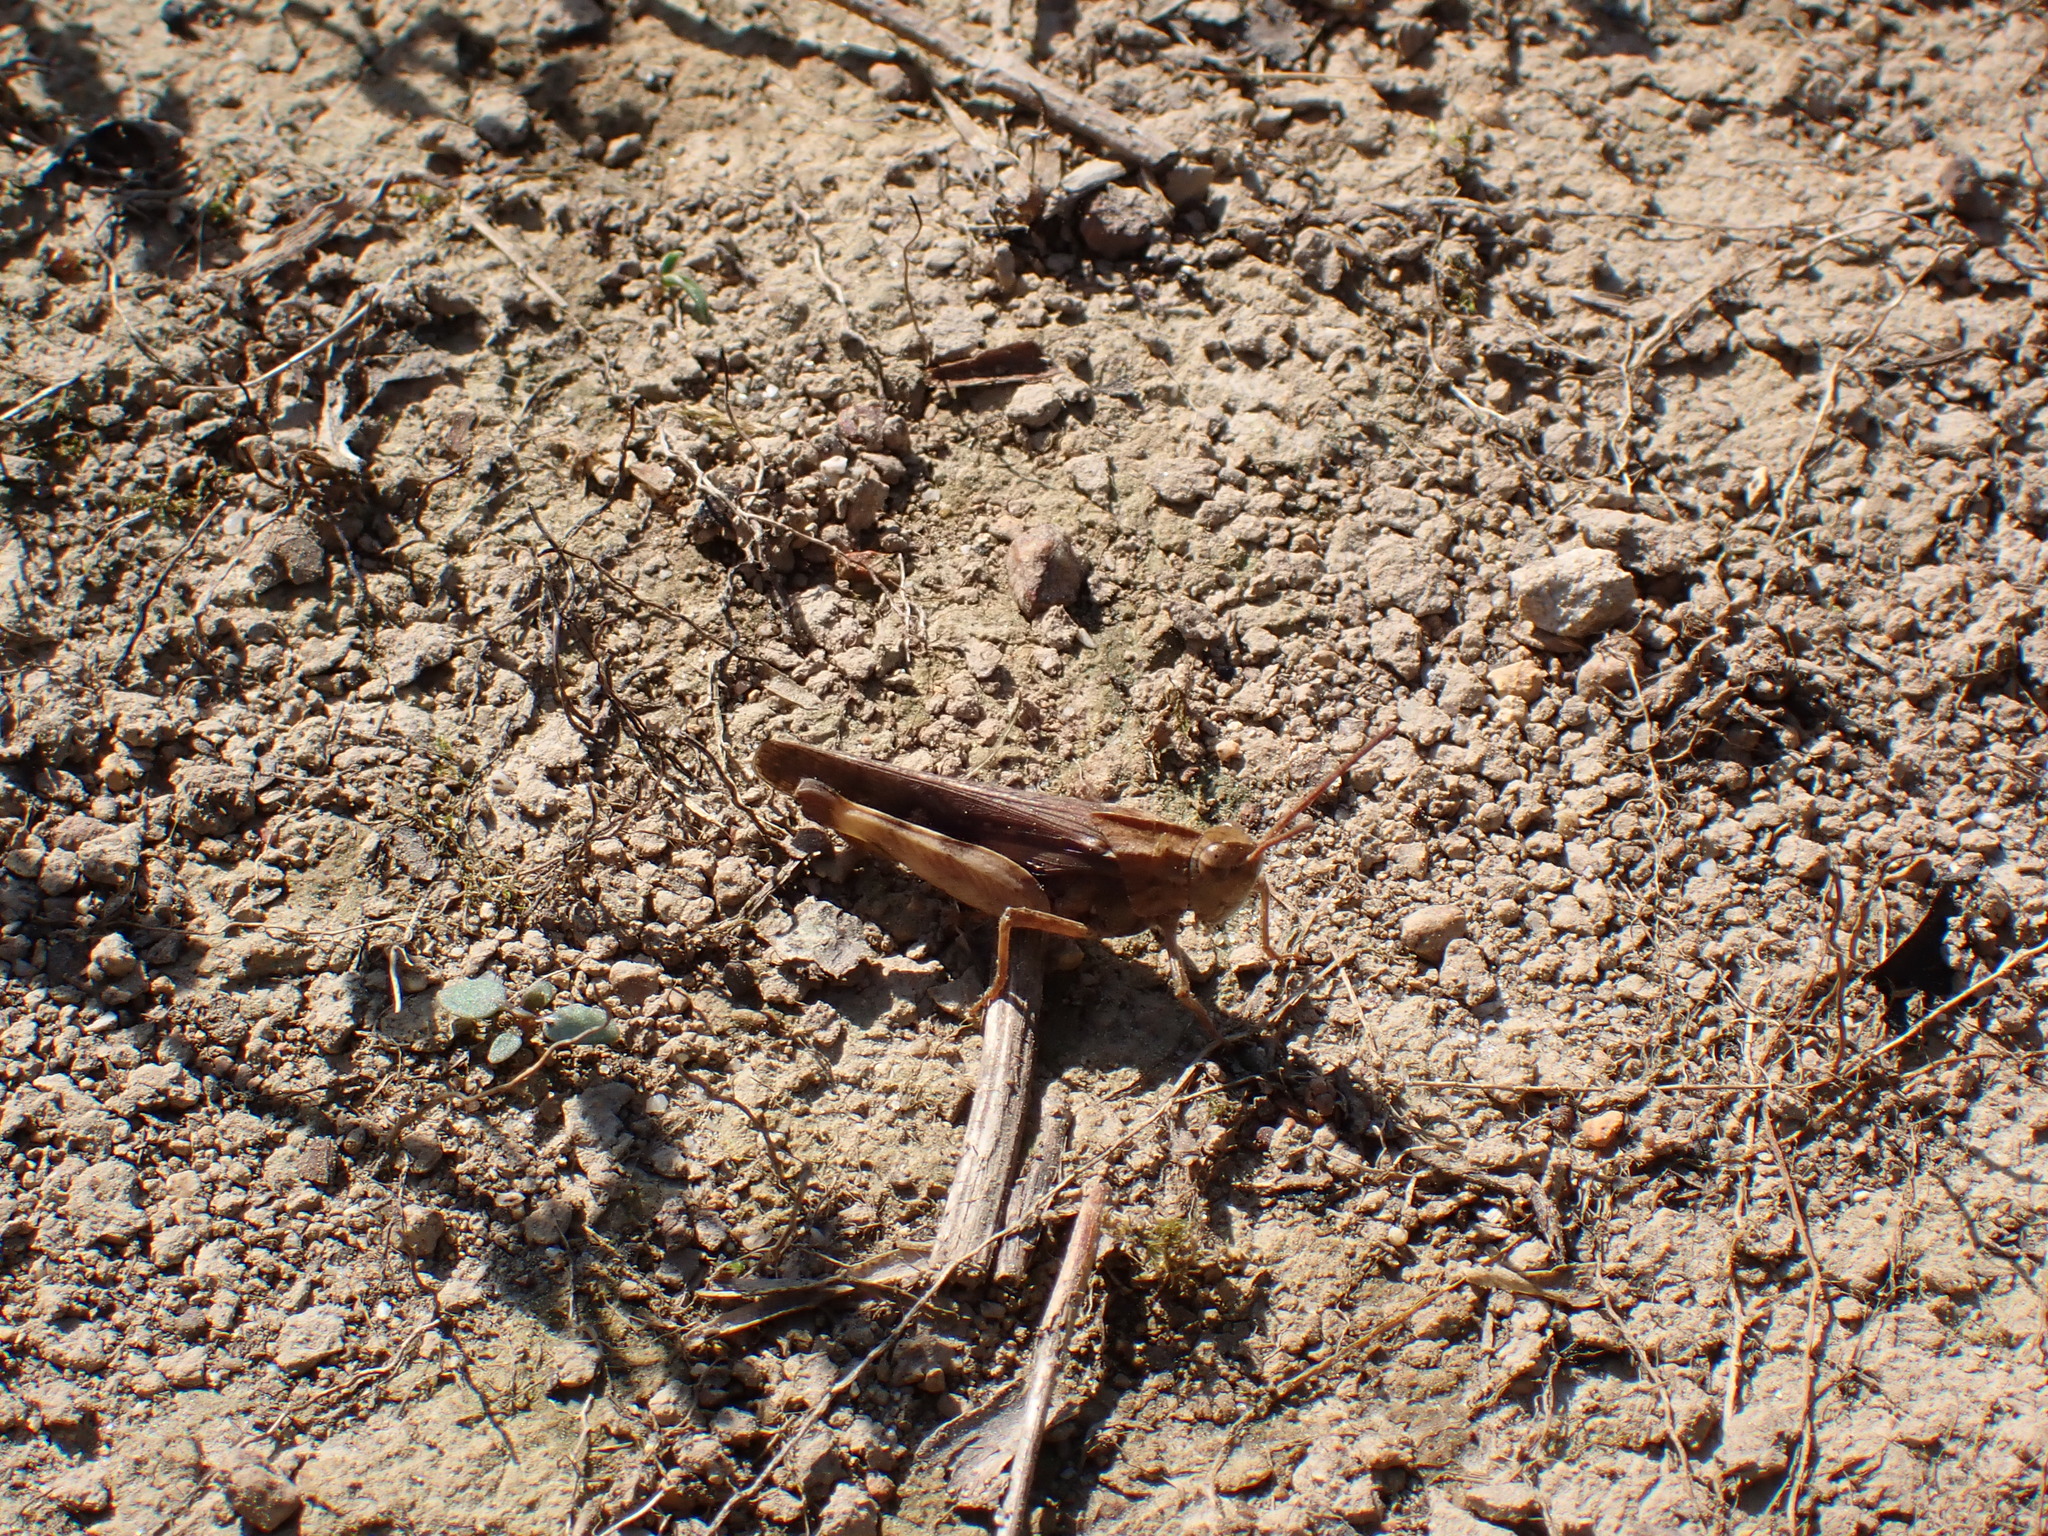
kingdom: Animalia
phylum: Arthropoda
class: Insecta
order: Orthoptera
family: Acrididae
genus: Chortophaga
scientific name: Chortophaga viridifasciata
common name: Green-striped grasshopper
